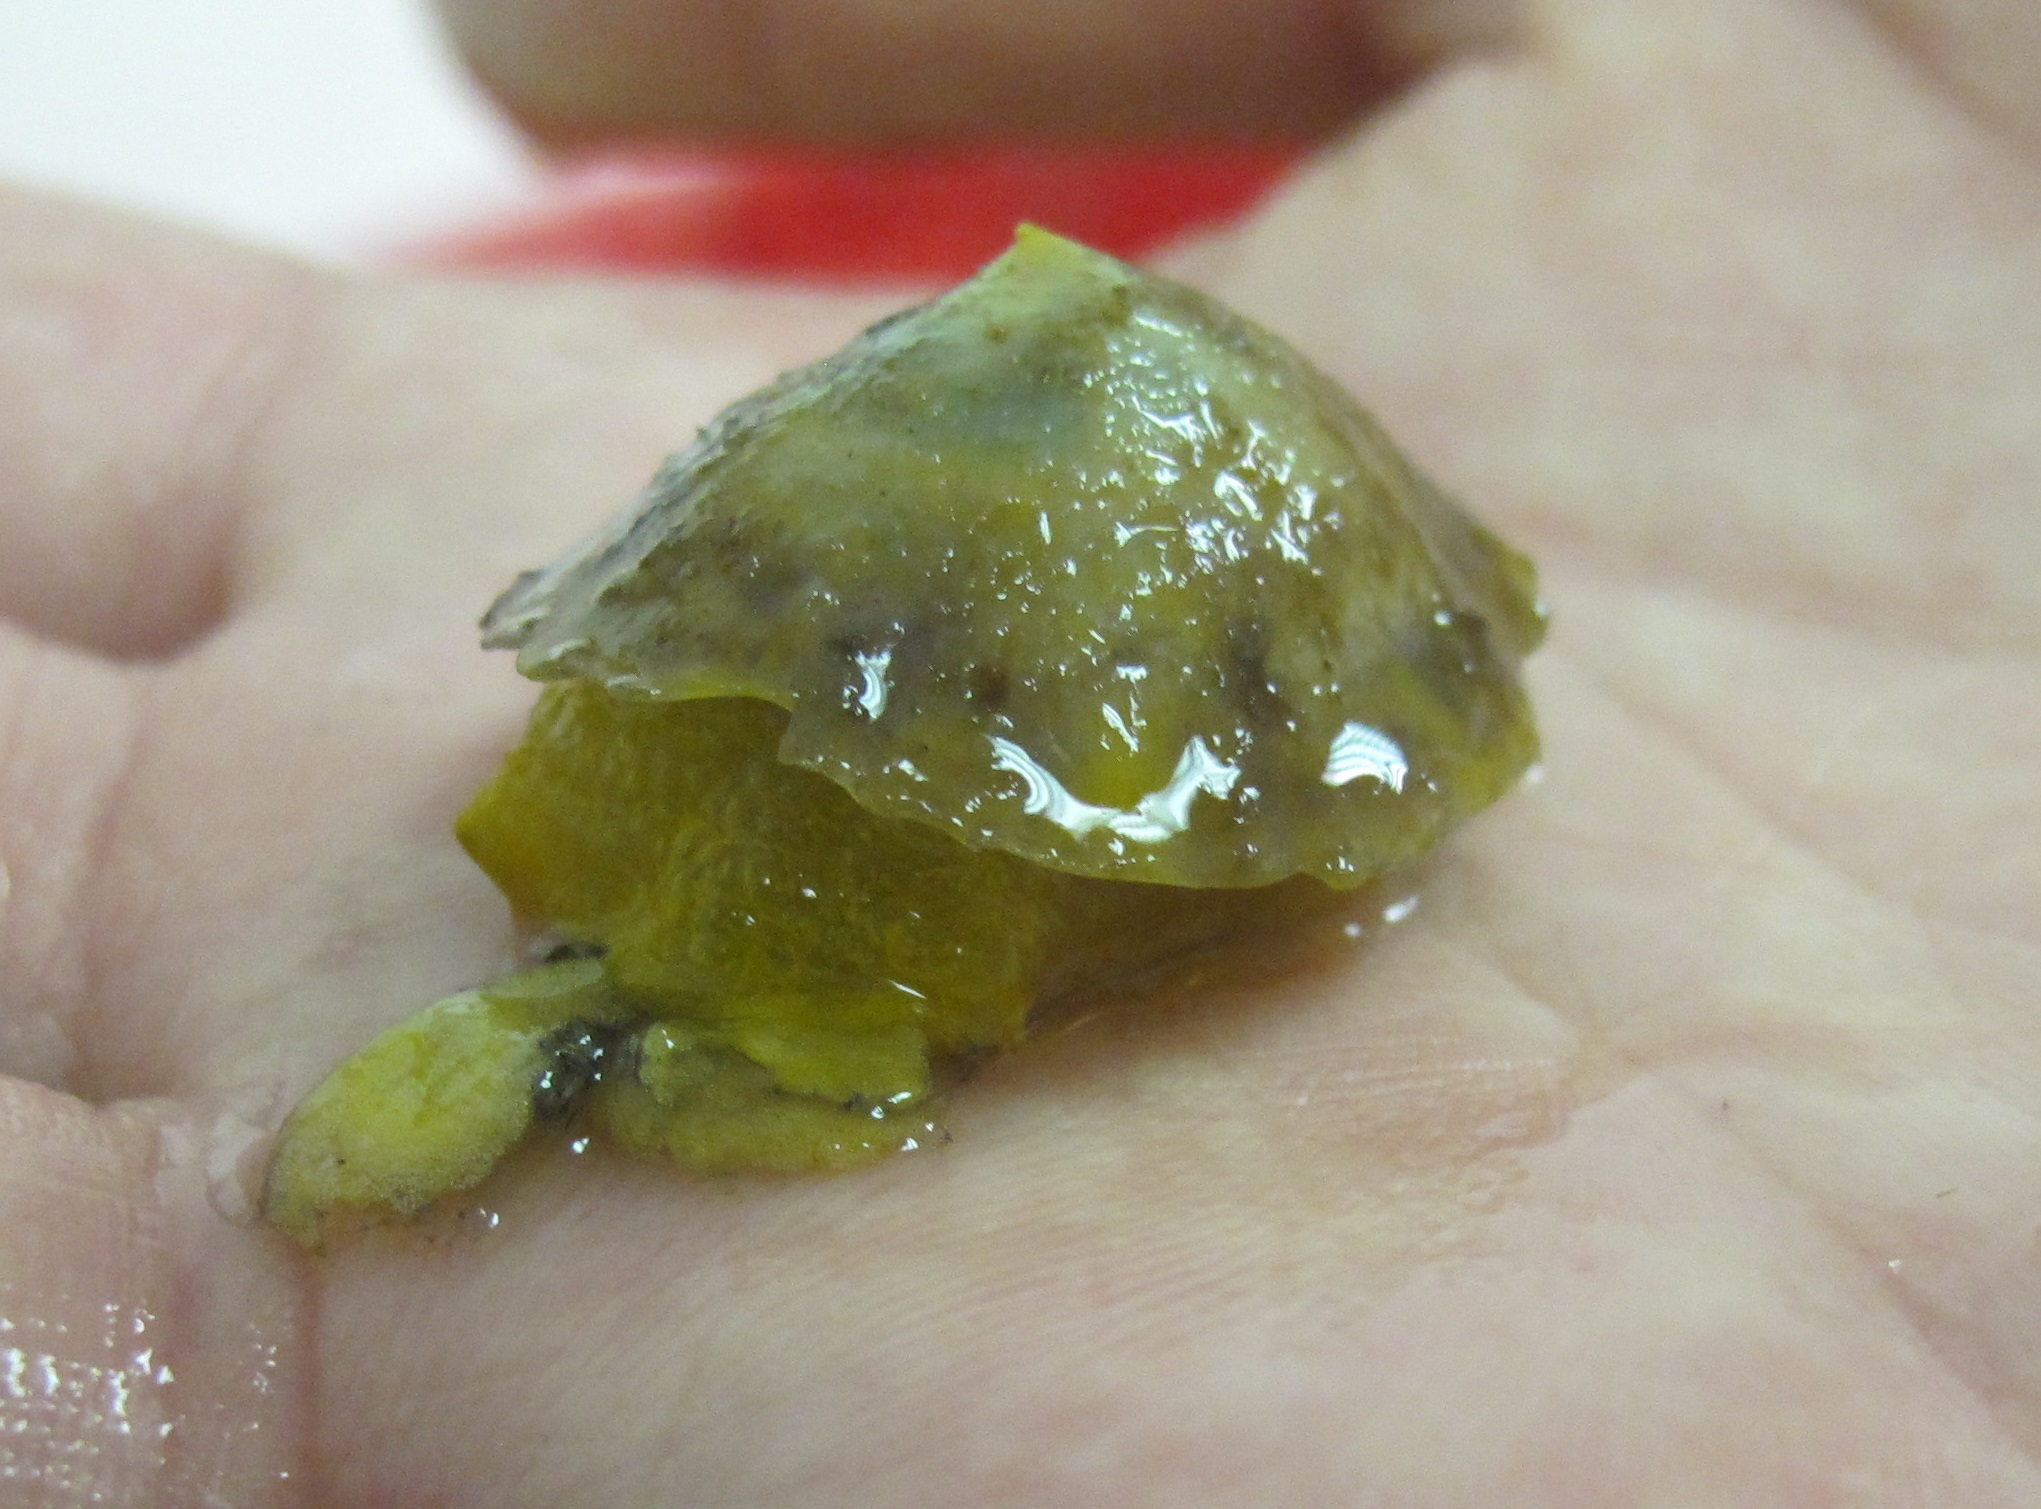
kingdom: Animalia
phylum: Mollusca
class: Gastropoda
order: Umbraculida
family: Tylodinidae
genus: Tylodina
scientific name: Tylodina perversa
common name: Yellow tylodina
